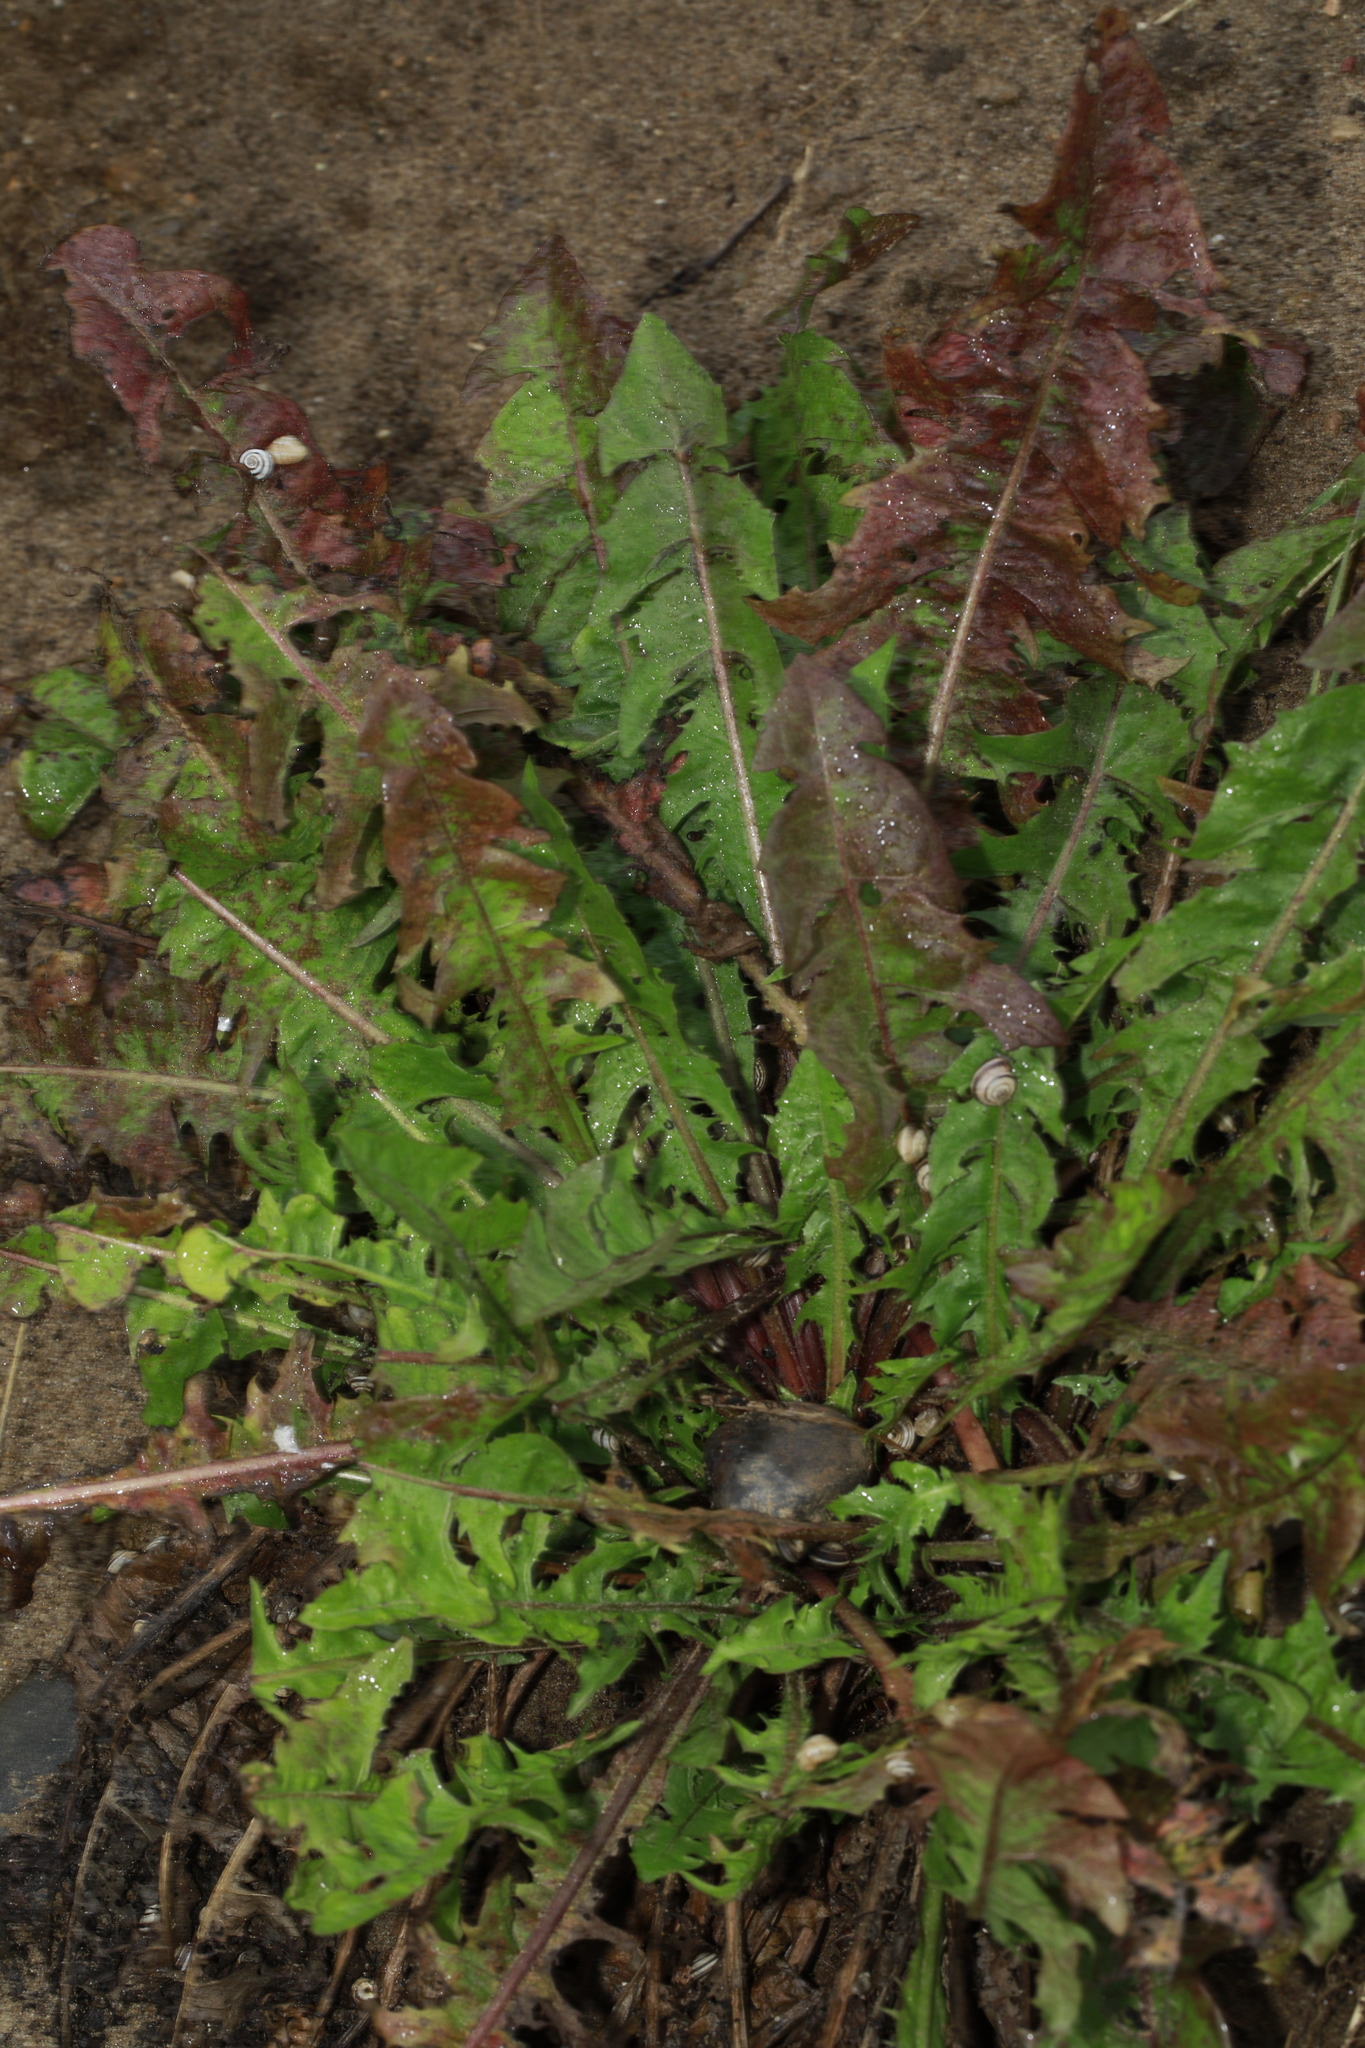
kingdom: Plantae
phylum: Tracheophyta
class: Magnoliopsida
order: Asterales
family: Asteraceae
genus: Taraxacum
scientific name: Taraxacum officinale
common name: Common dandelion
